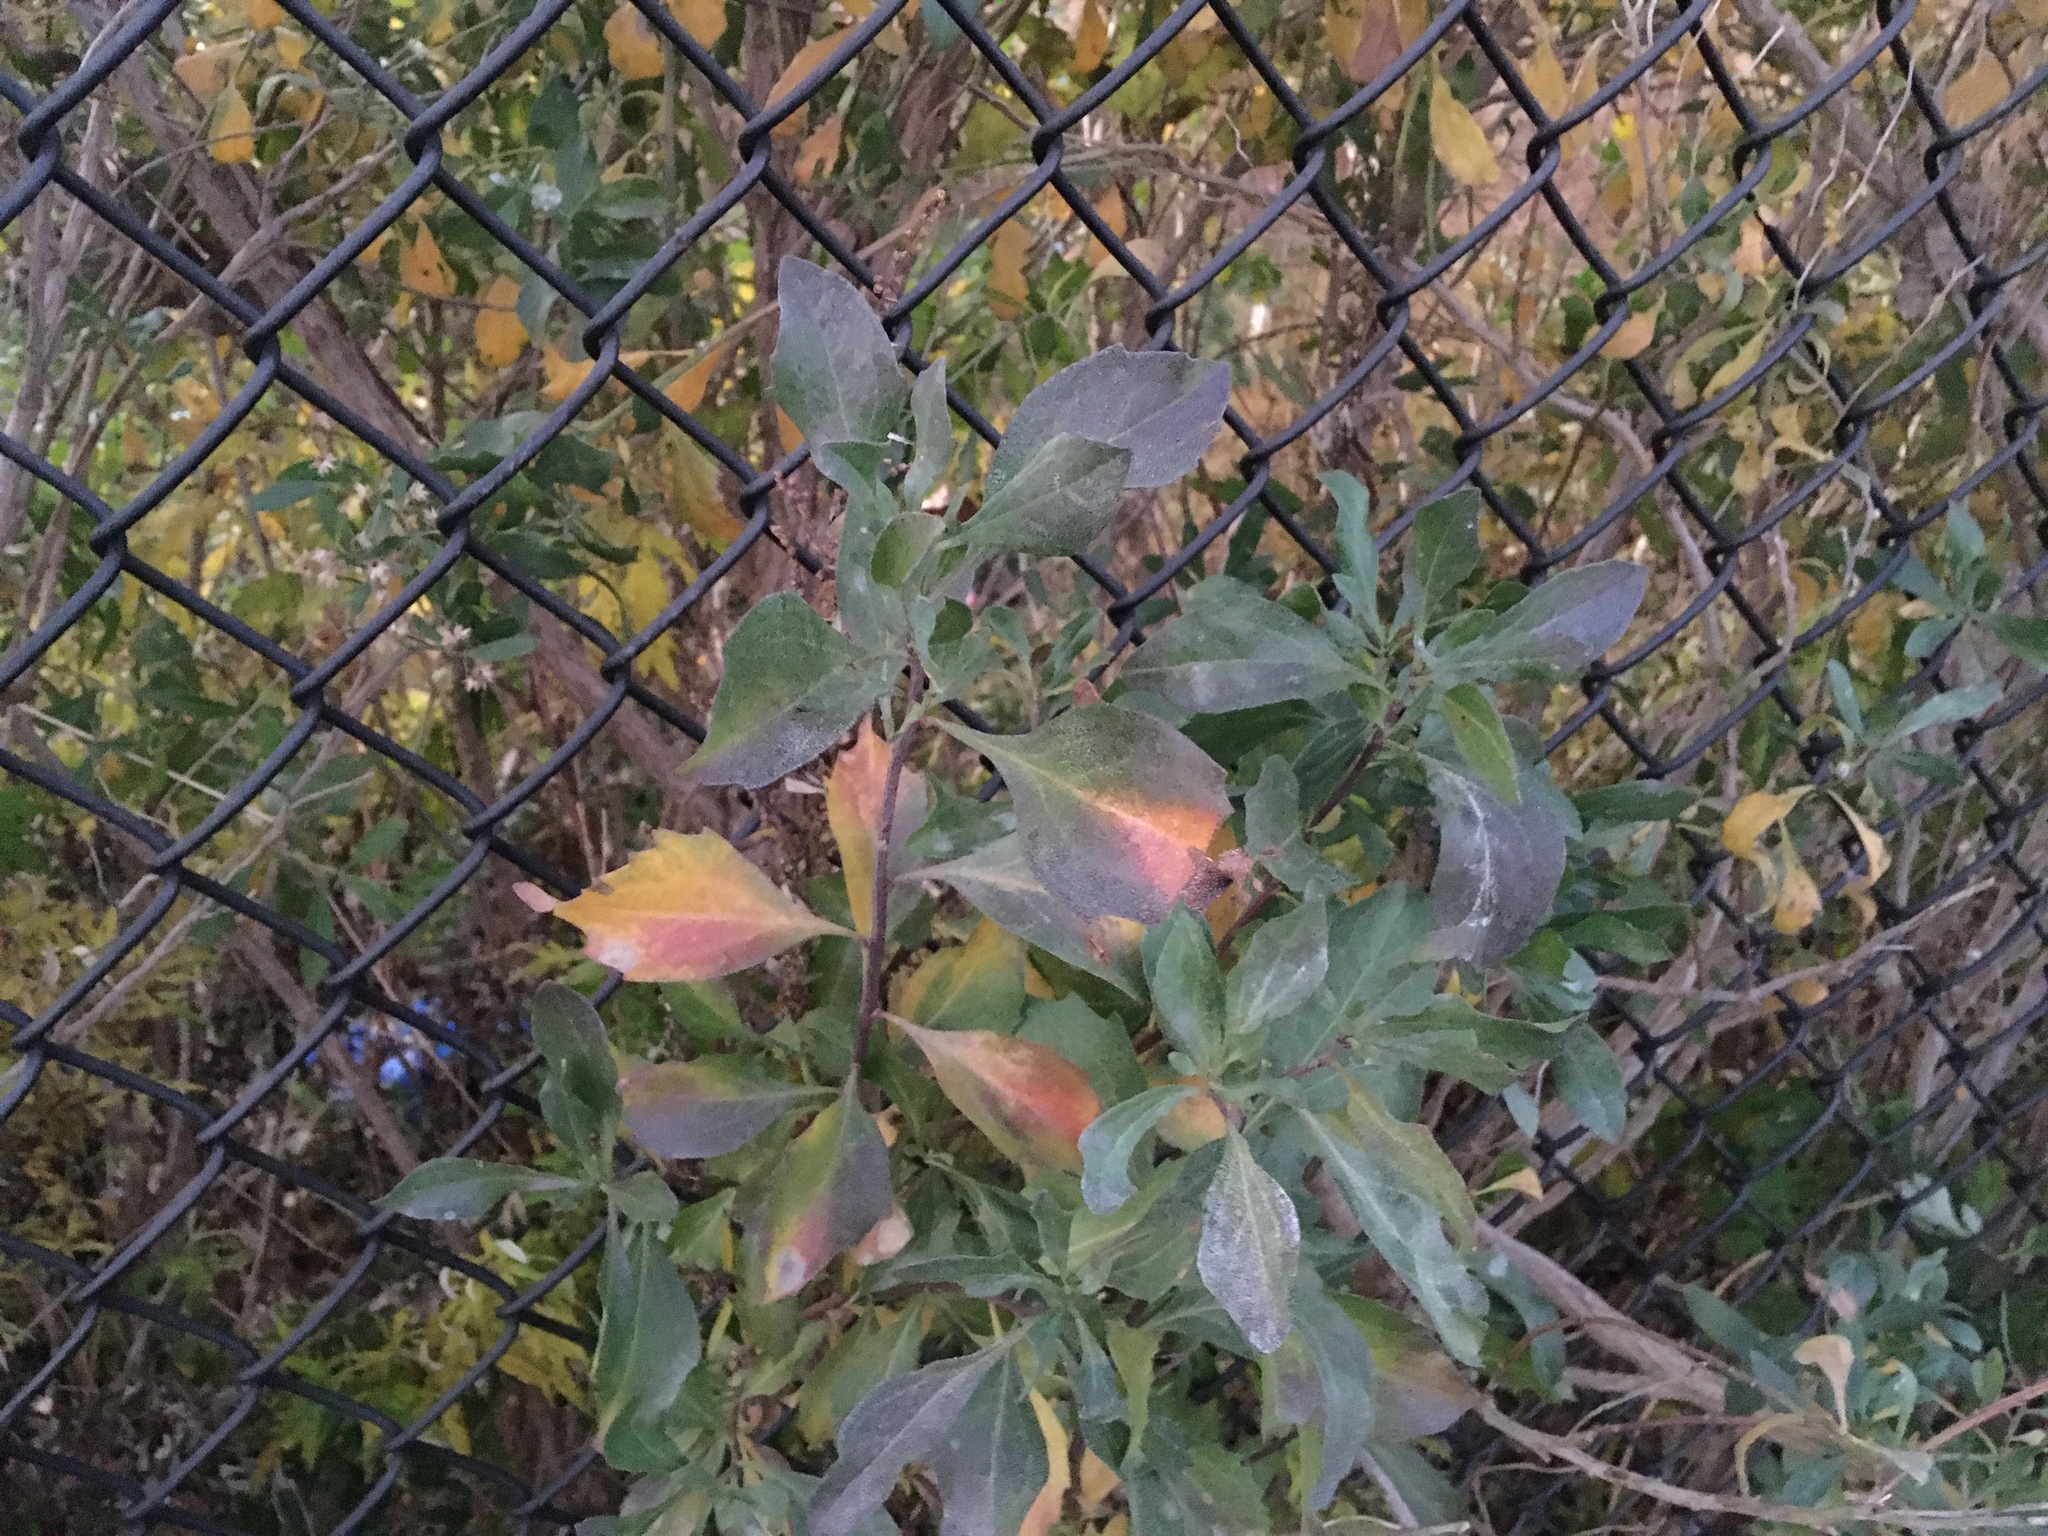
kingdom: Plantae
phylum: Tracheophyta
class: Magnoliopsida
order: Asterales
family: Asteraceae
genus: Baccharis
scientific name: Baccharis halimifolia
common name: Eastern baccharis
